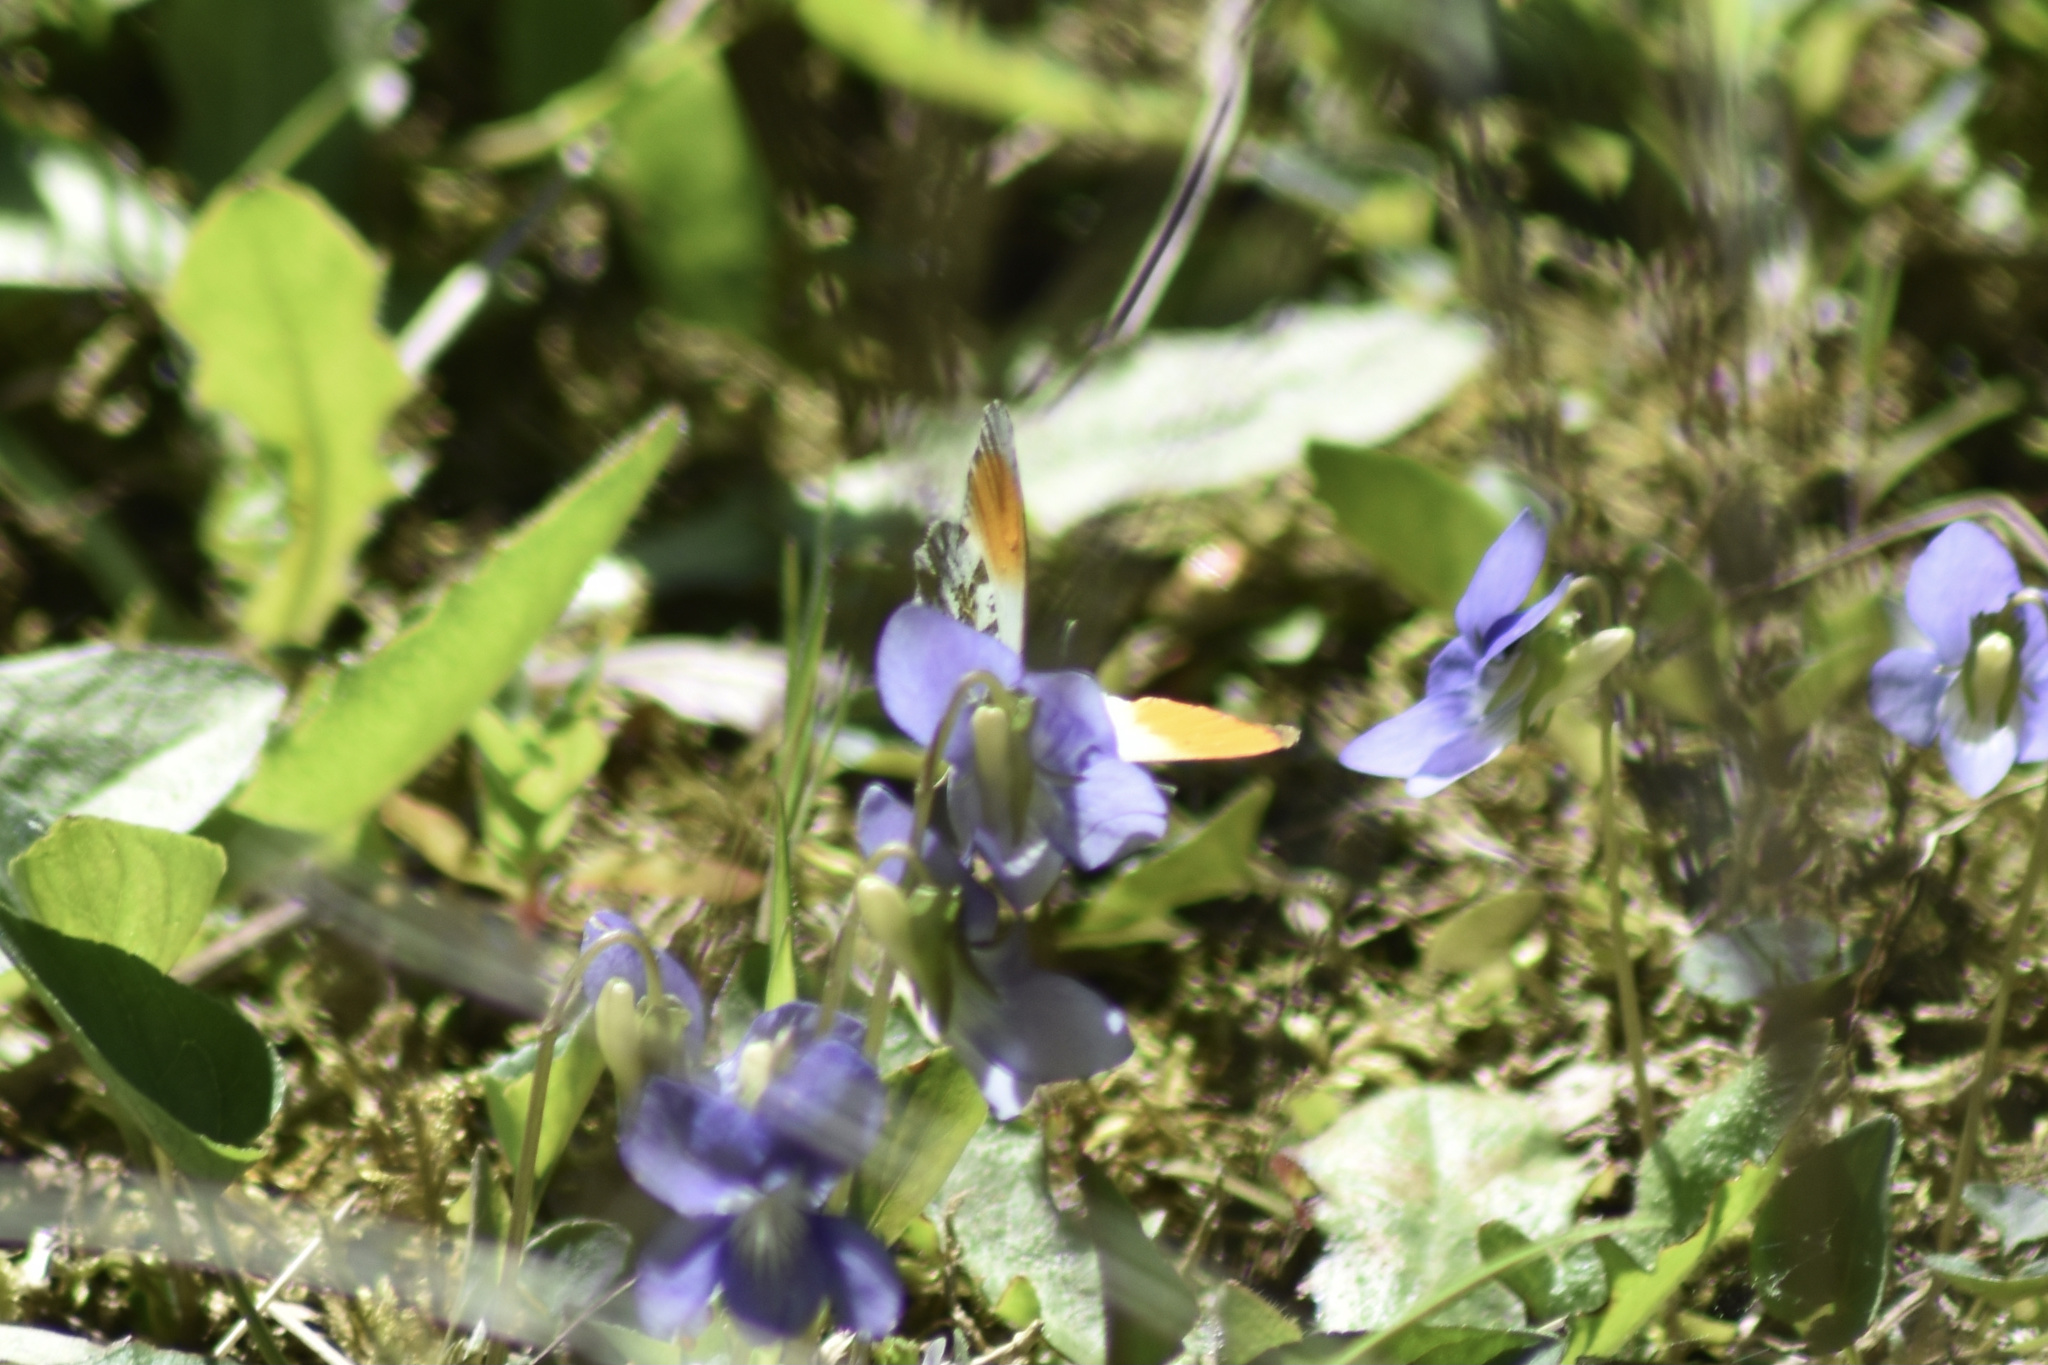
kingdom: Animalia
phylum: Arthropoda
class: Insecta
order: Lepidoptera
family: Pieridae
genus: Anthocharis
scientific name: Anthocharis cardamines
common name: Orange-tip
